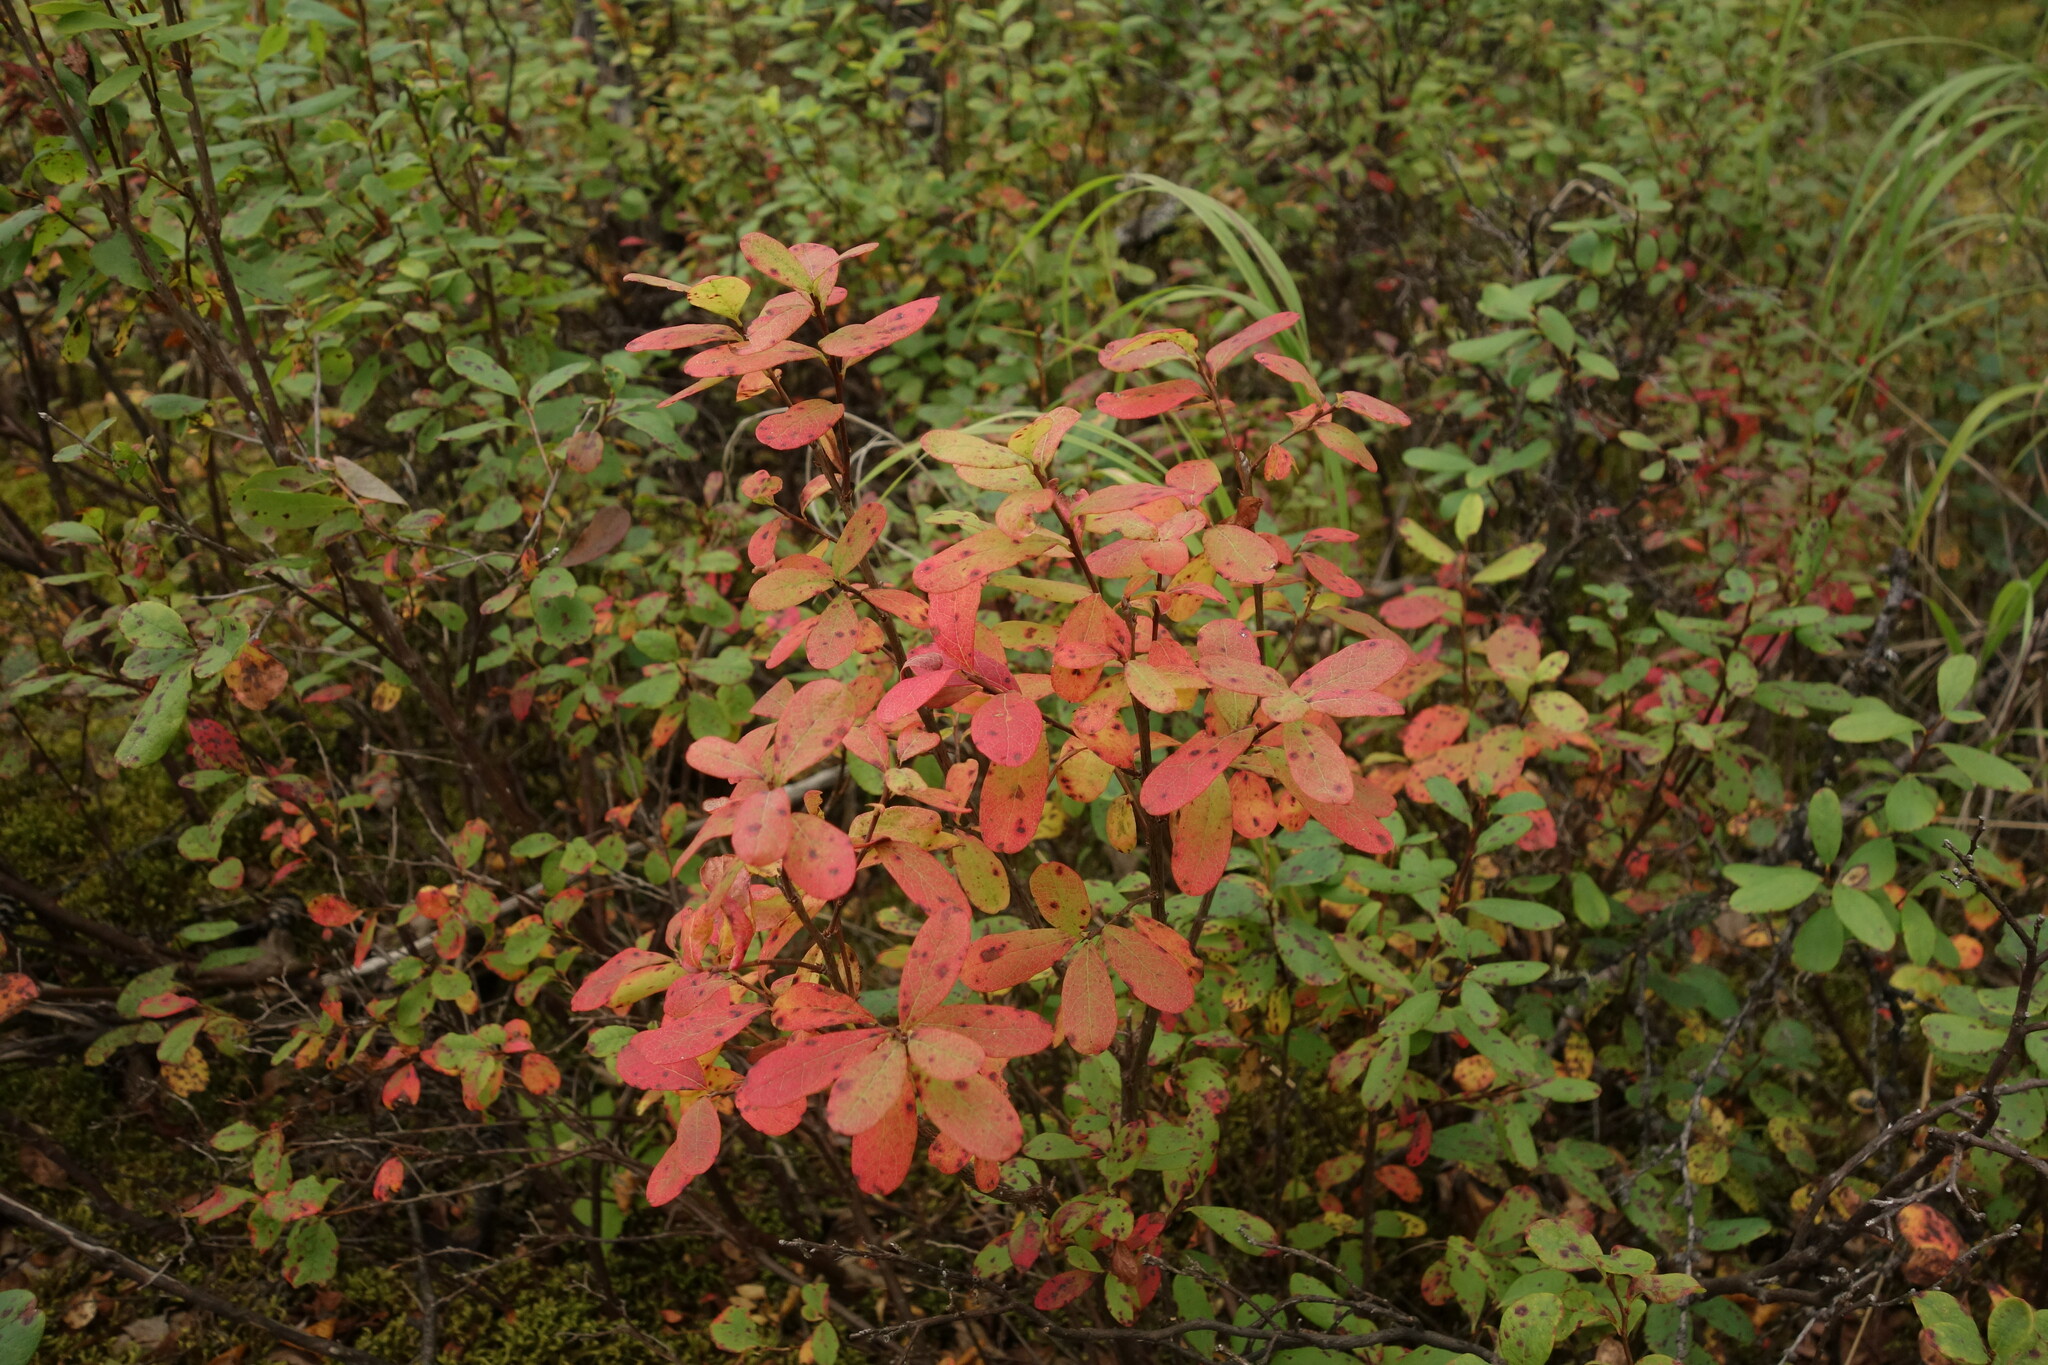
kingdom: Plantae
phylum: Tracheophyta
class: Magnoliopsida
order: Ericales
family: Ericaceae
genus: Vaccinium
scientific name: Vaccinium uliginosum
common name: Bog bilberry
